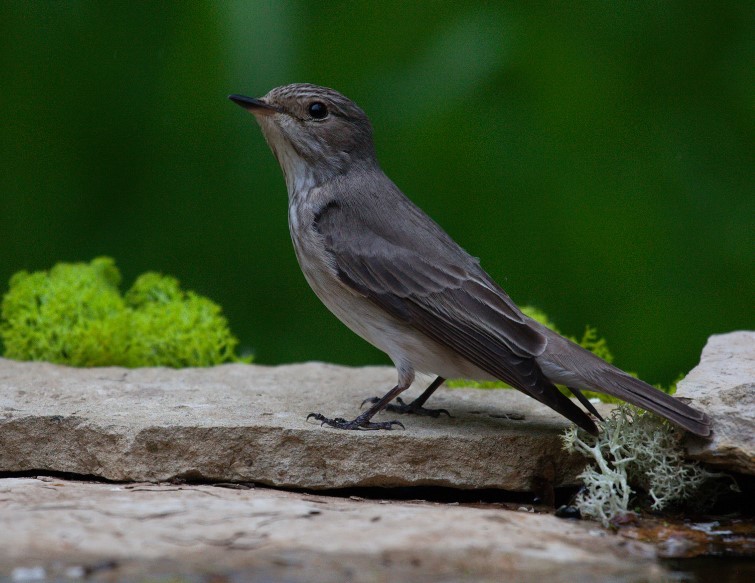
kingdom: Animalia
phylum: Chordata
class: Aves
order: Passeriformes
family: Muscicapidae
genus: Muscicapa
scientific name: Muscicapa striata
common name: Spotted flycatcher
